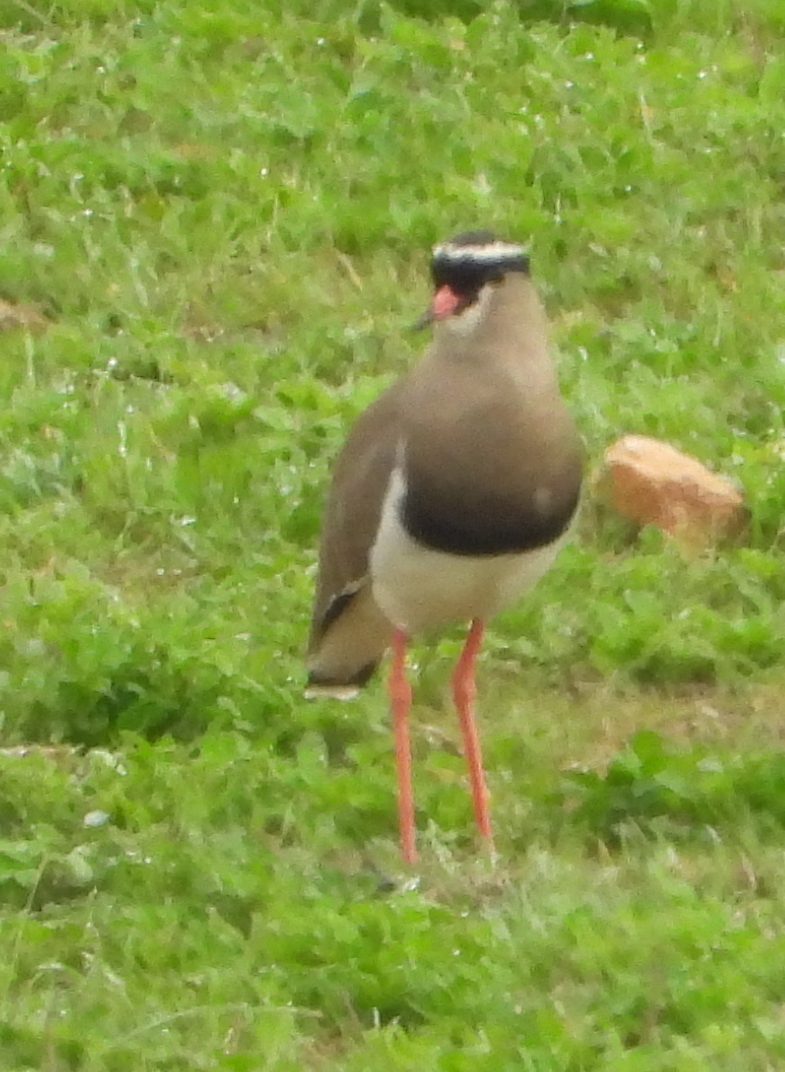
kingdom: Animalia
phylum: Chordata
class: Aves
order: Charadriiformes
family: Charadriidae
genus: Vanellus
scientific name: Vanellus coronatus
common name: Crowned lapwing
